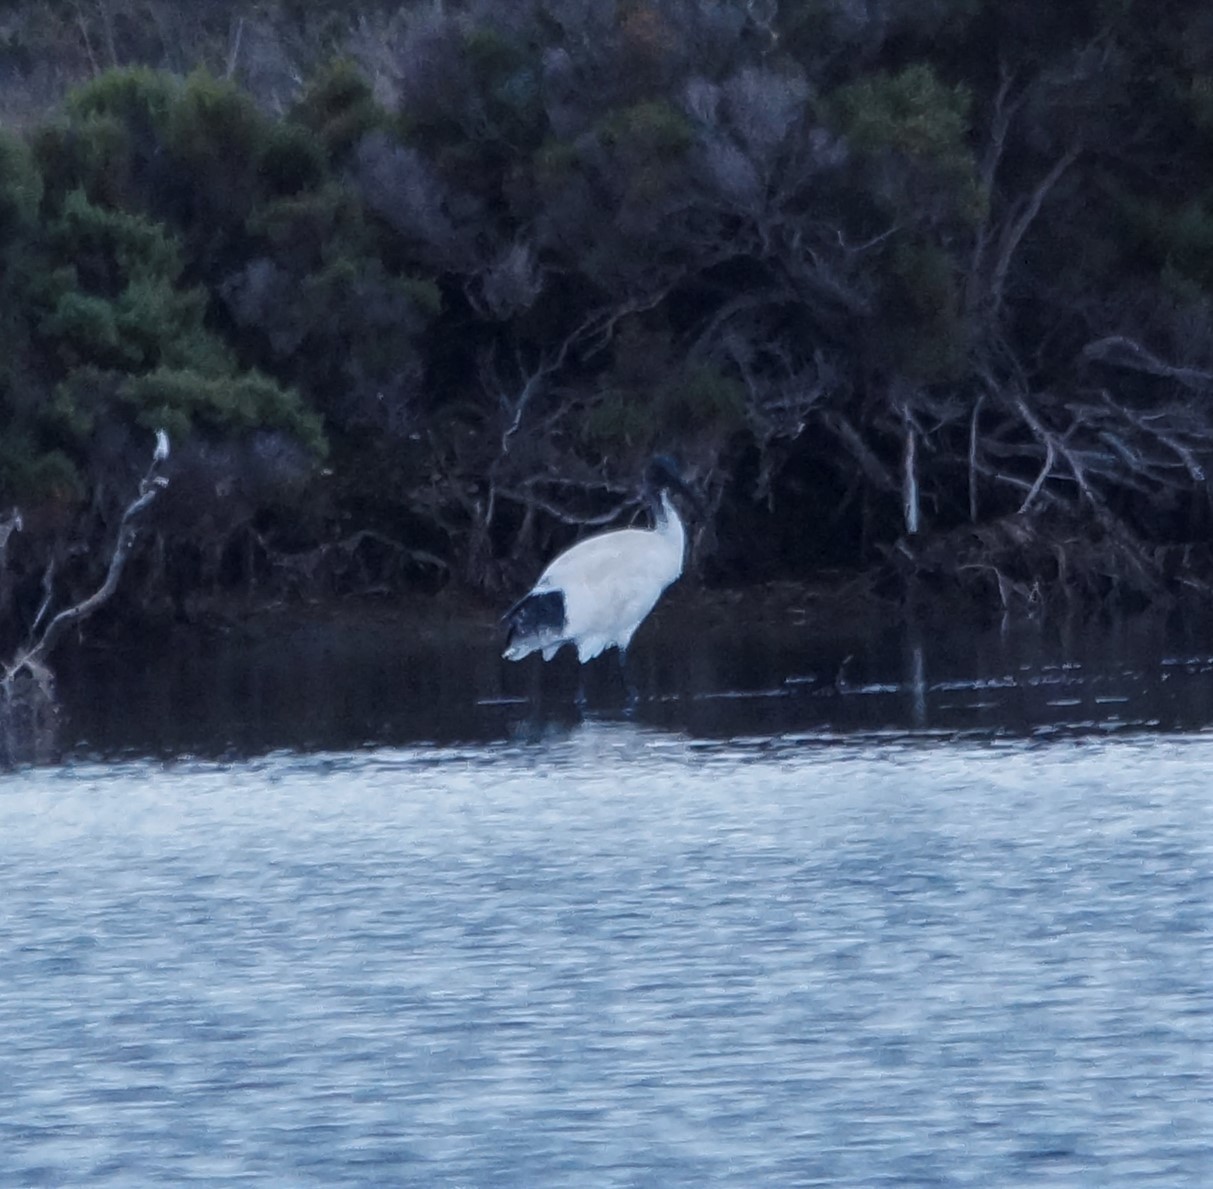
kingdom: Animalia
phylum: Chordata
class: Aves
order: Pelecaniformes
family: Threskiornithidae
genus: Threskiornis
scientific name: Threskiornis molucca
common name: Australian white ibis
